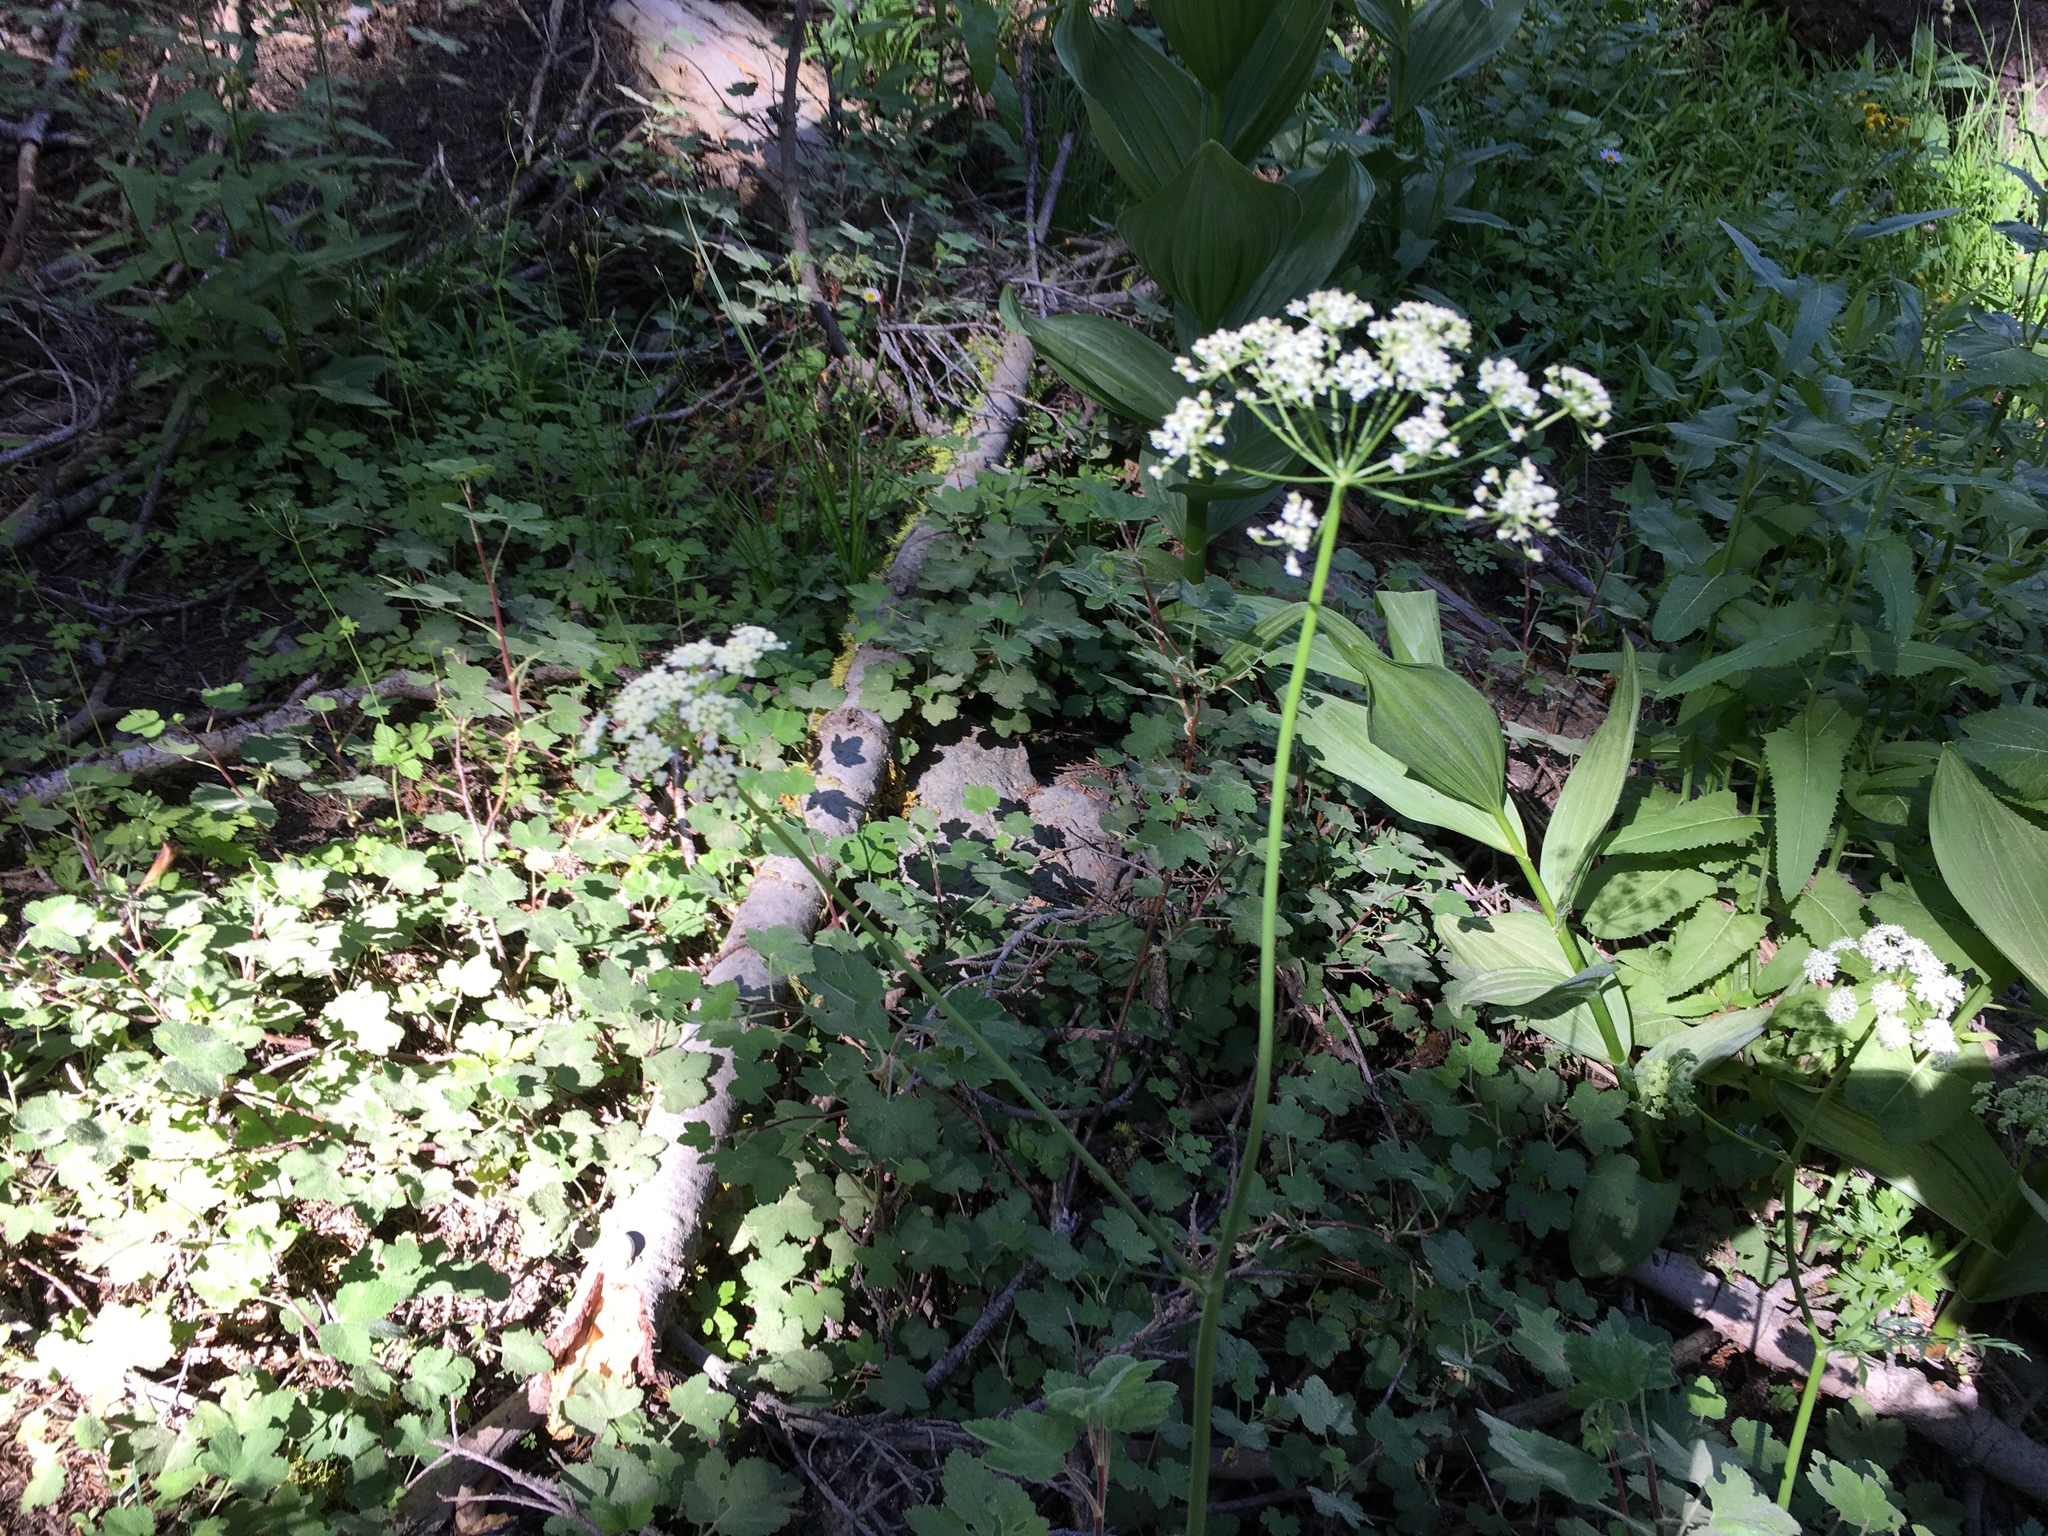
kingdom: Plantae
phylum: Tracheophyta
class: Magnoliopsida
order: Apiales
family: Apiaceae
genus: Ligusticum
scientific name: Ligusticum grayi
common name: Gray's licorice-root
